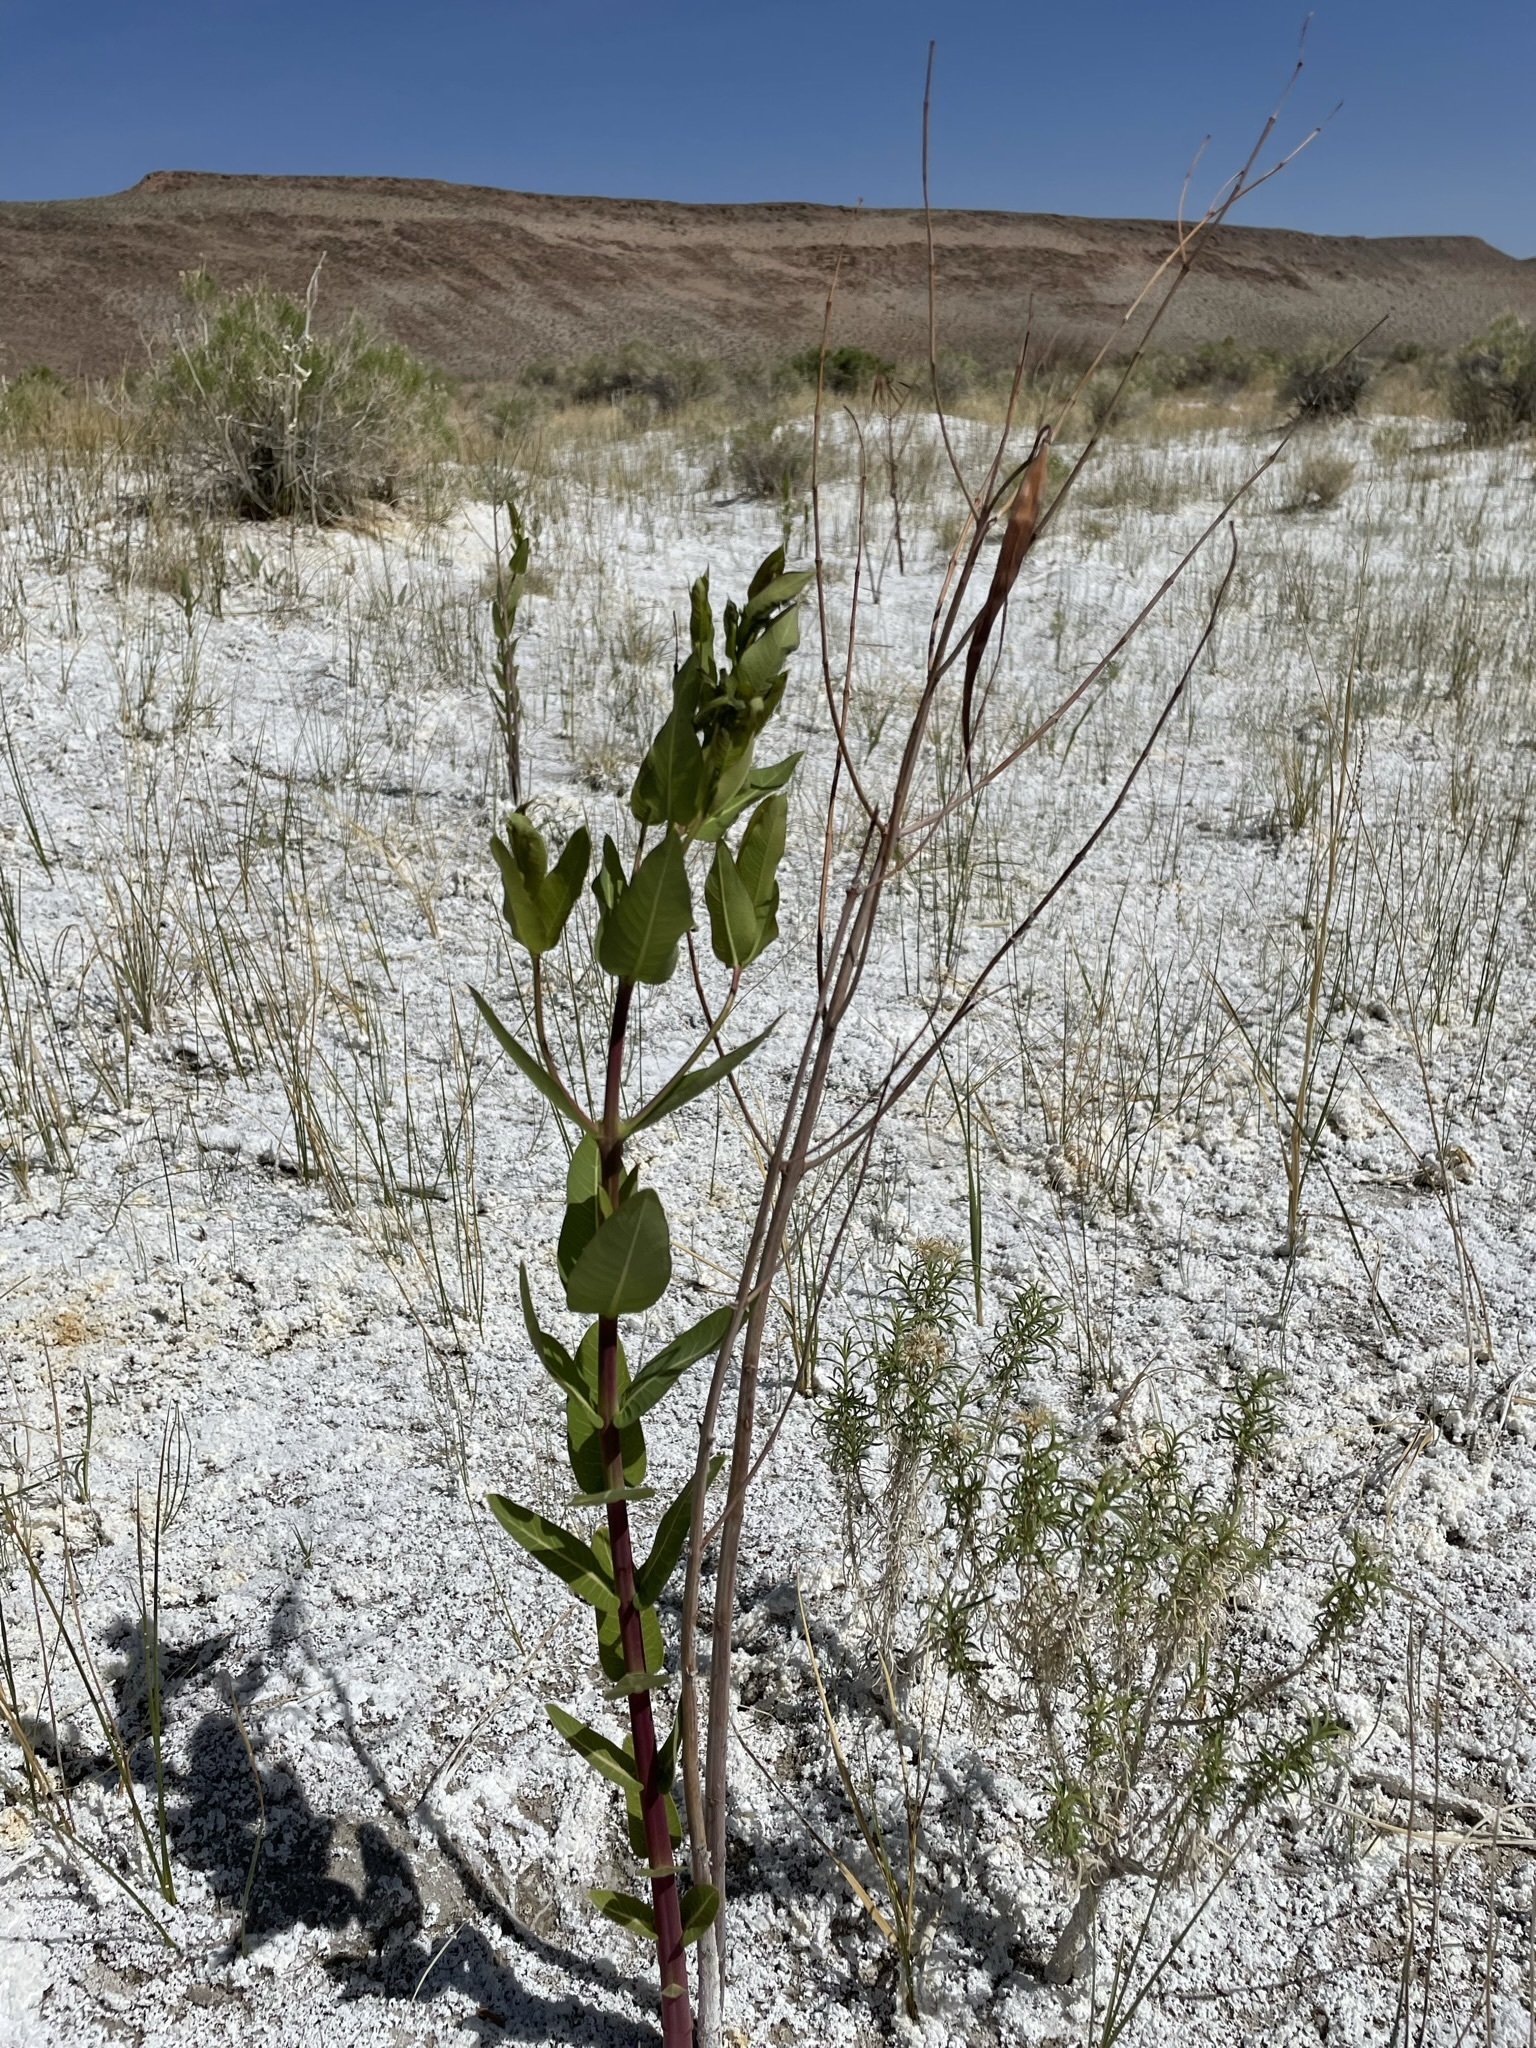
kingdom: Plantae
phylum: Tracheophyta
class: Magnoliopsida
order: Gentianales
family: Apocynaceae
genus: Apocynum
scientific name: Apocynum cannabinum
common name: Hemp dogbane
